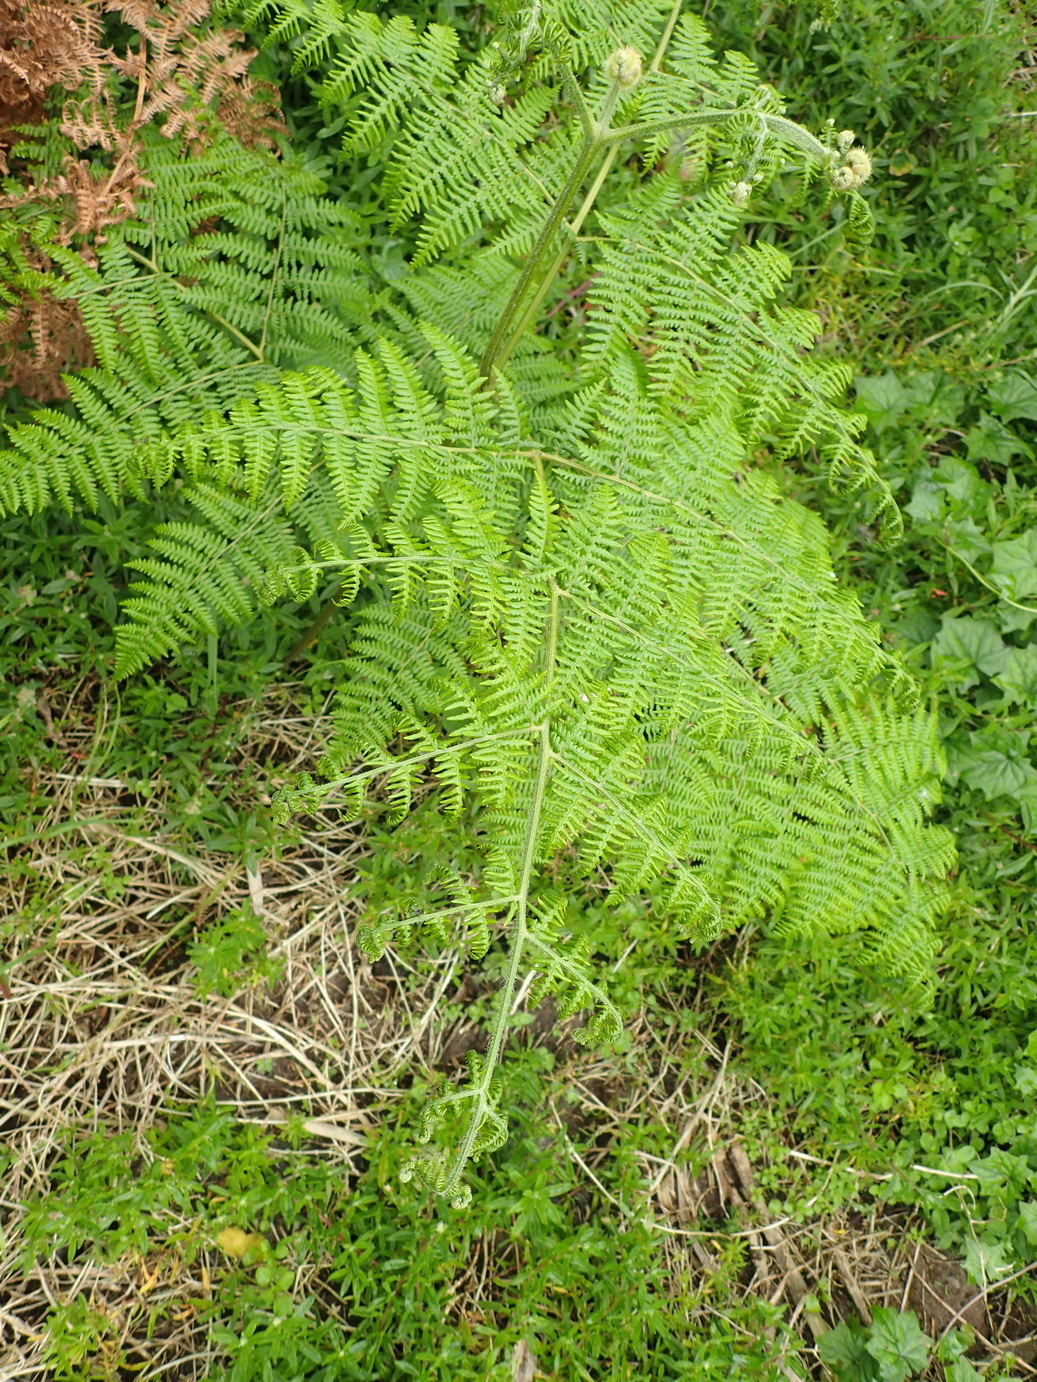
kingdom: Plantae
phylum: Tracheophyta
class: Polypodiopsida
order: Polypodiales
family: Dennstaedtiaceae
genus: Pteridium
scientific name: Pteridium aquilinum
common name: Bracken
